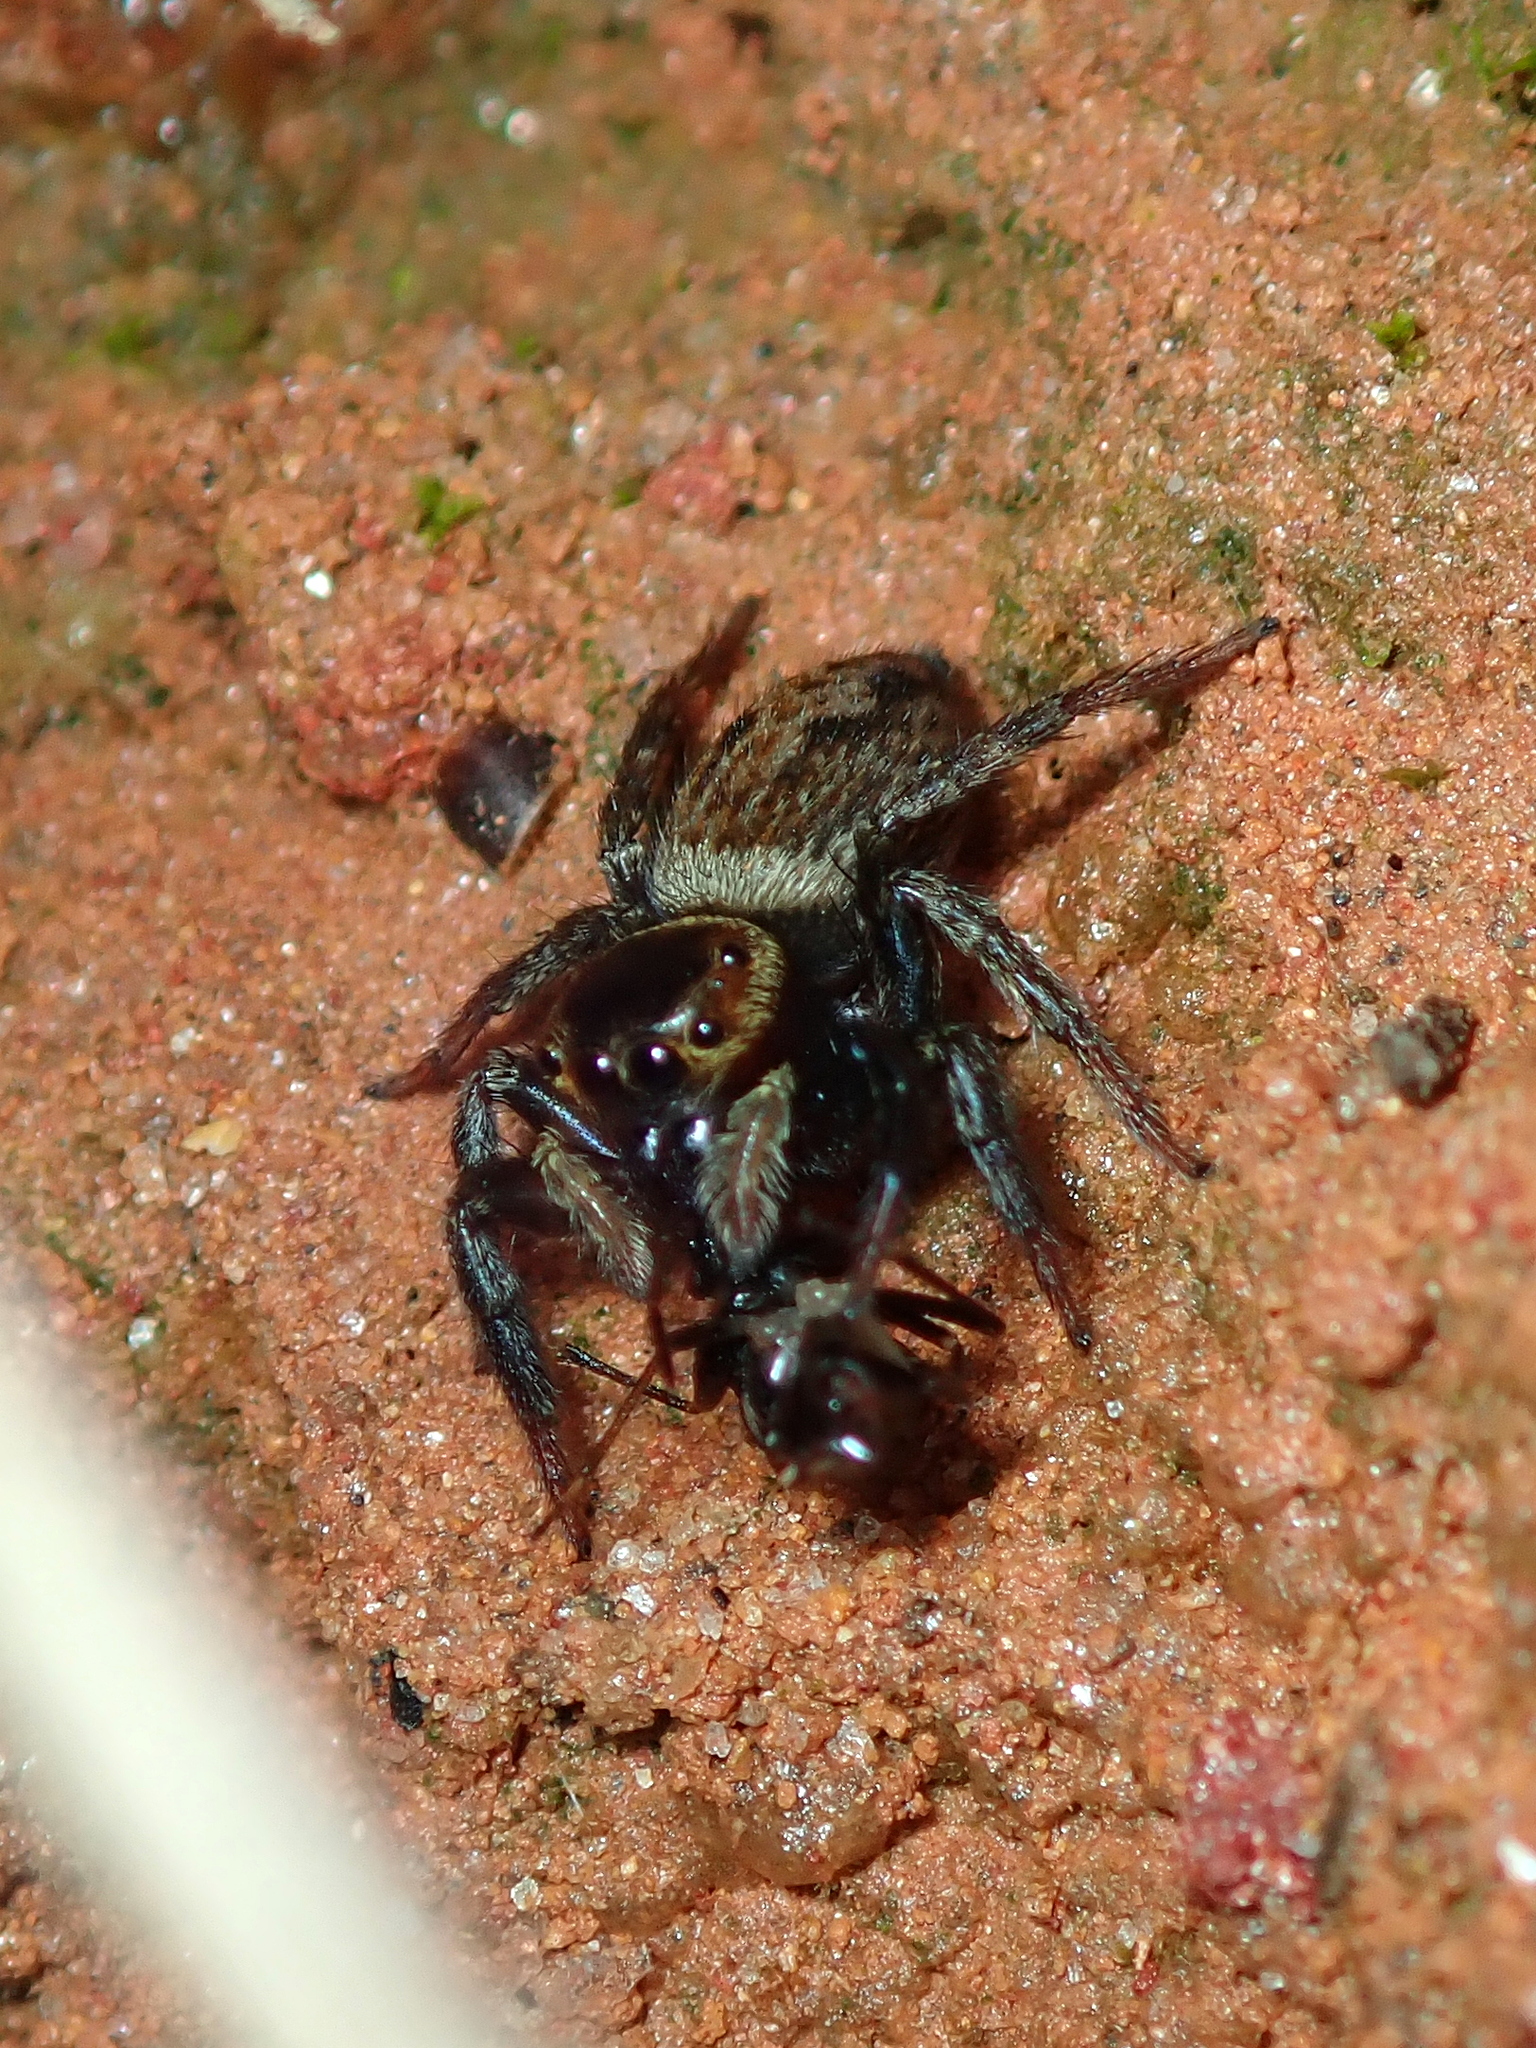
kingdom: Animalia
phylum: Arthropoda
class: Arachnida
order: Araneae
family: Salticidae
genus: Hasarius
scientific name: Hasarius adansoni
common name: Jumping spider
